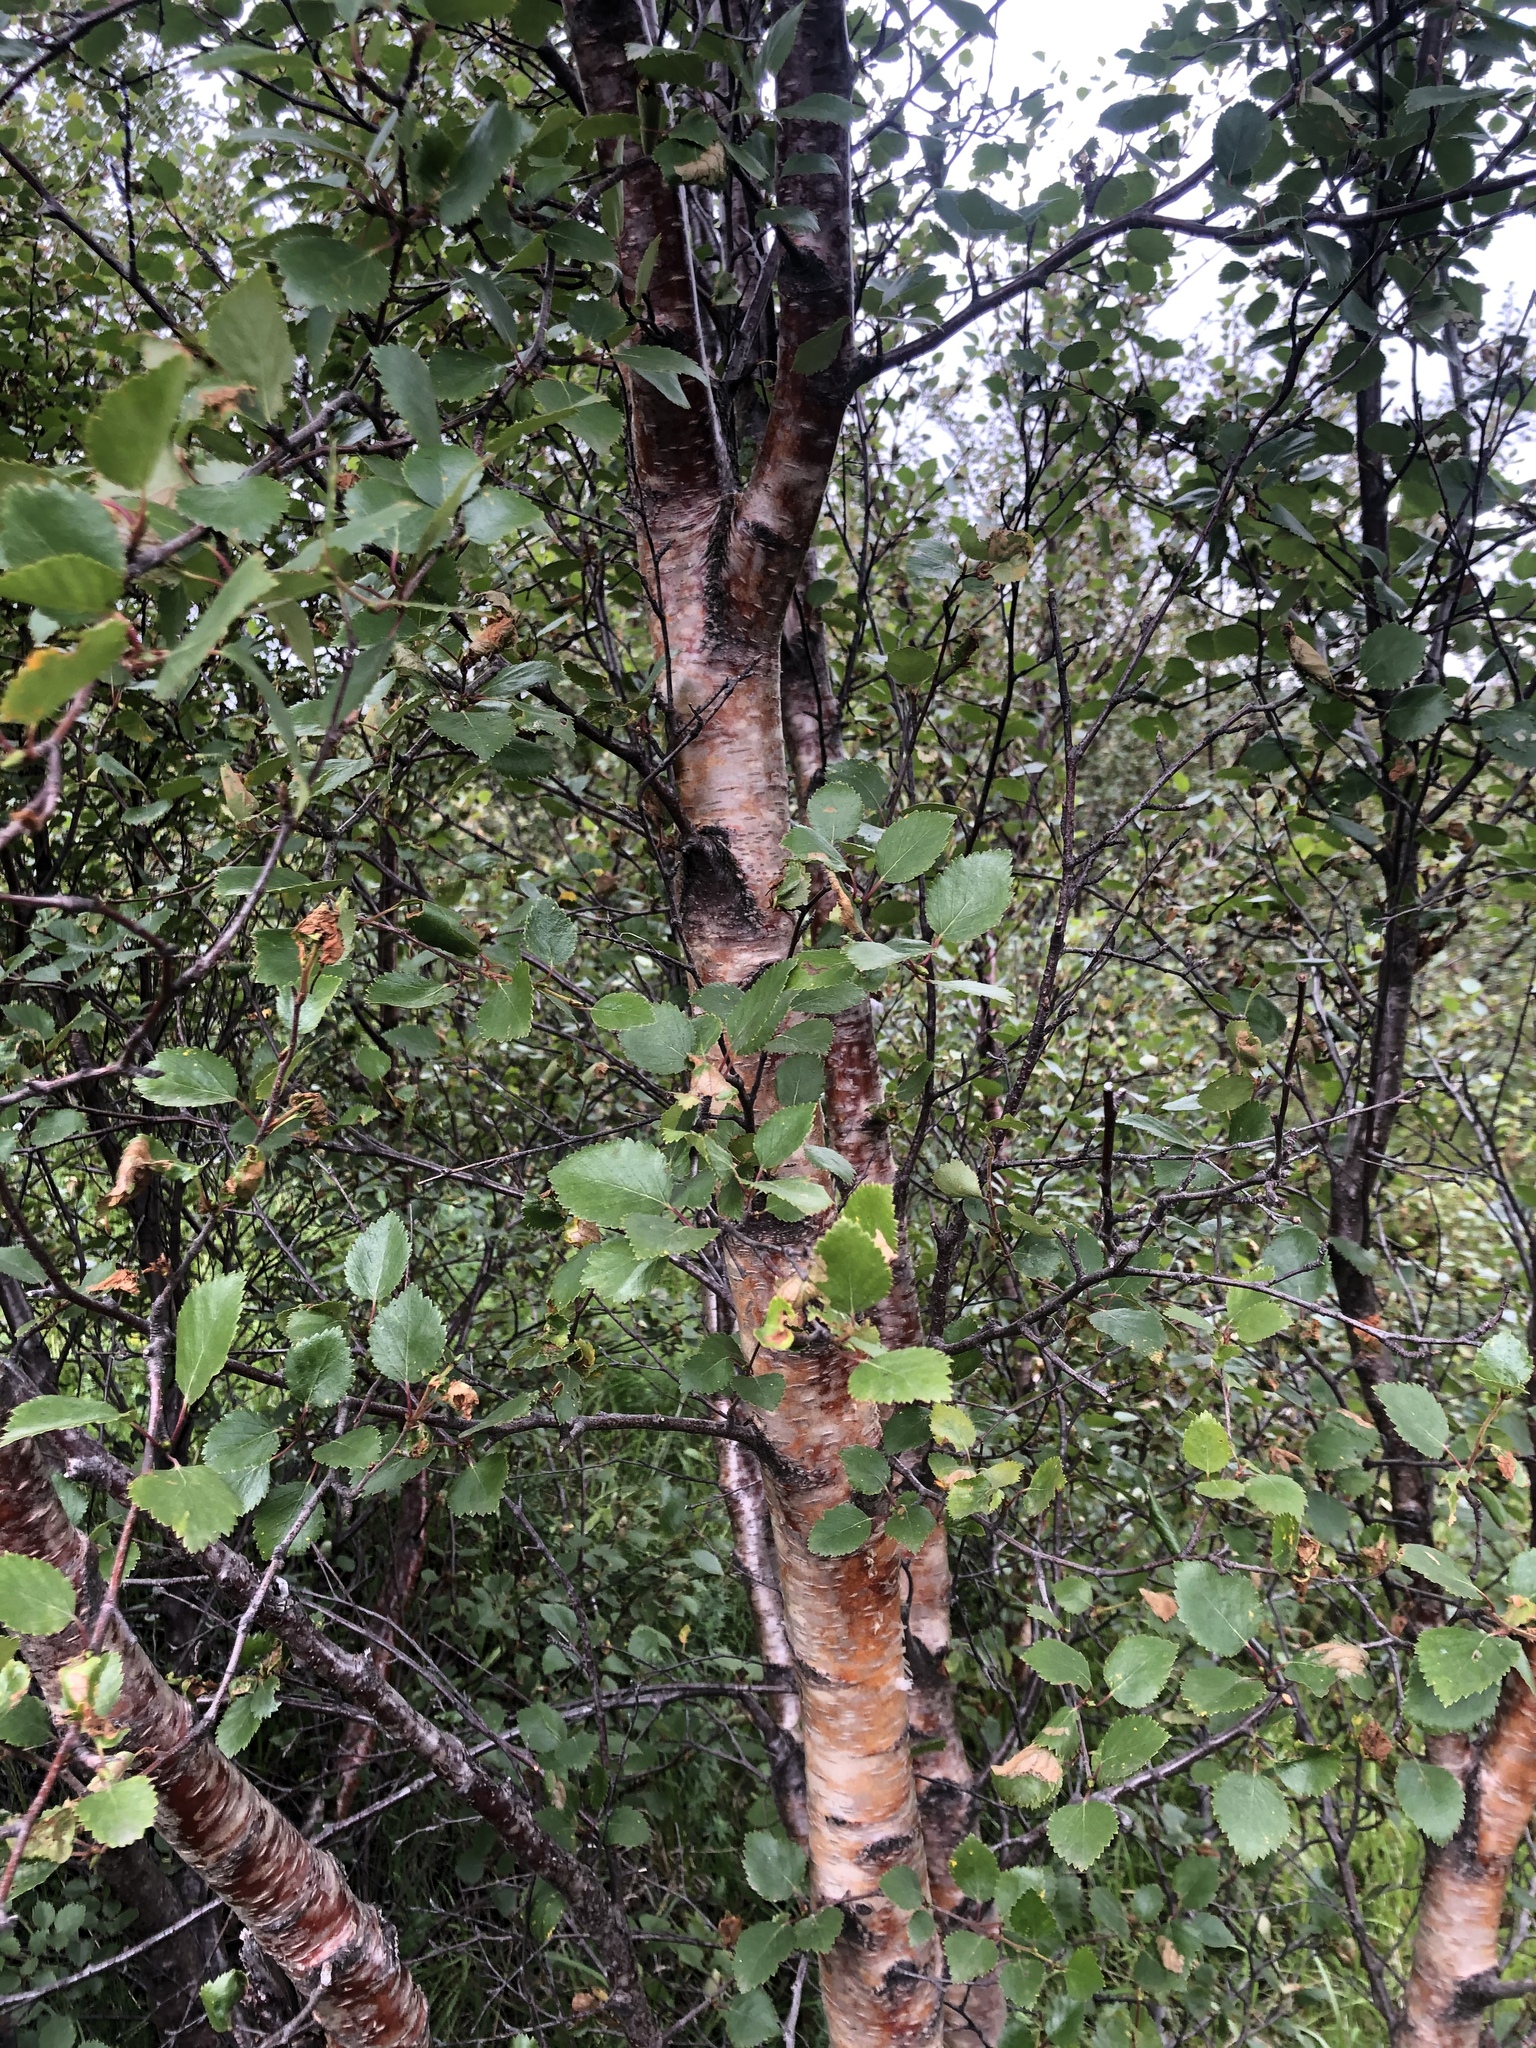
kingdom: Plantae
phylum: Tracheophyta
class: Magnoliopsida
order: Fagales
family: Betulaceae
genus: Betula
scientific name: Betula pubescens
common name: Downy birch
